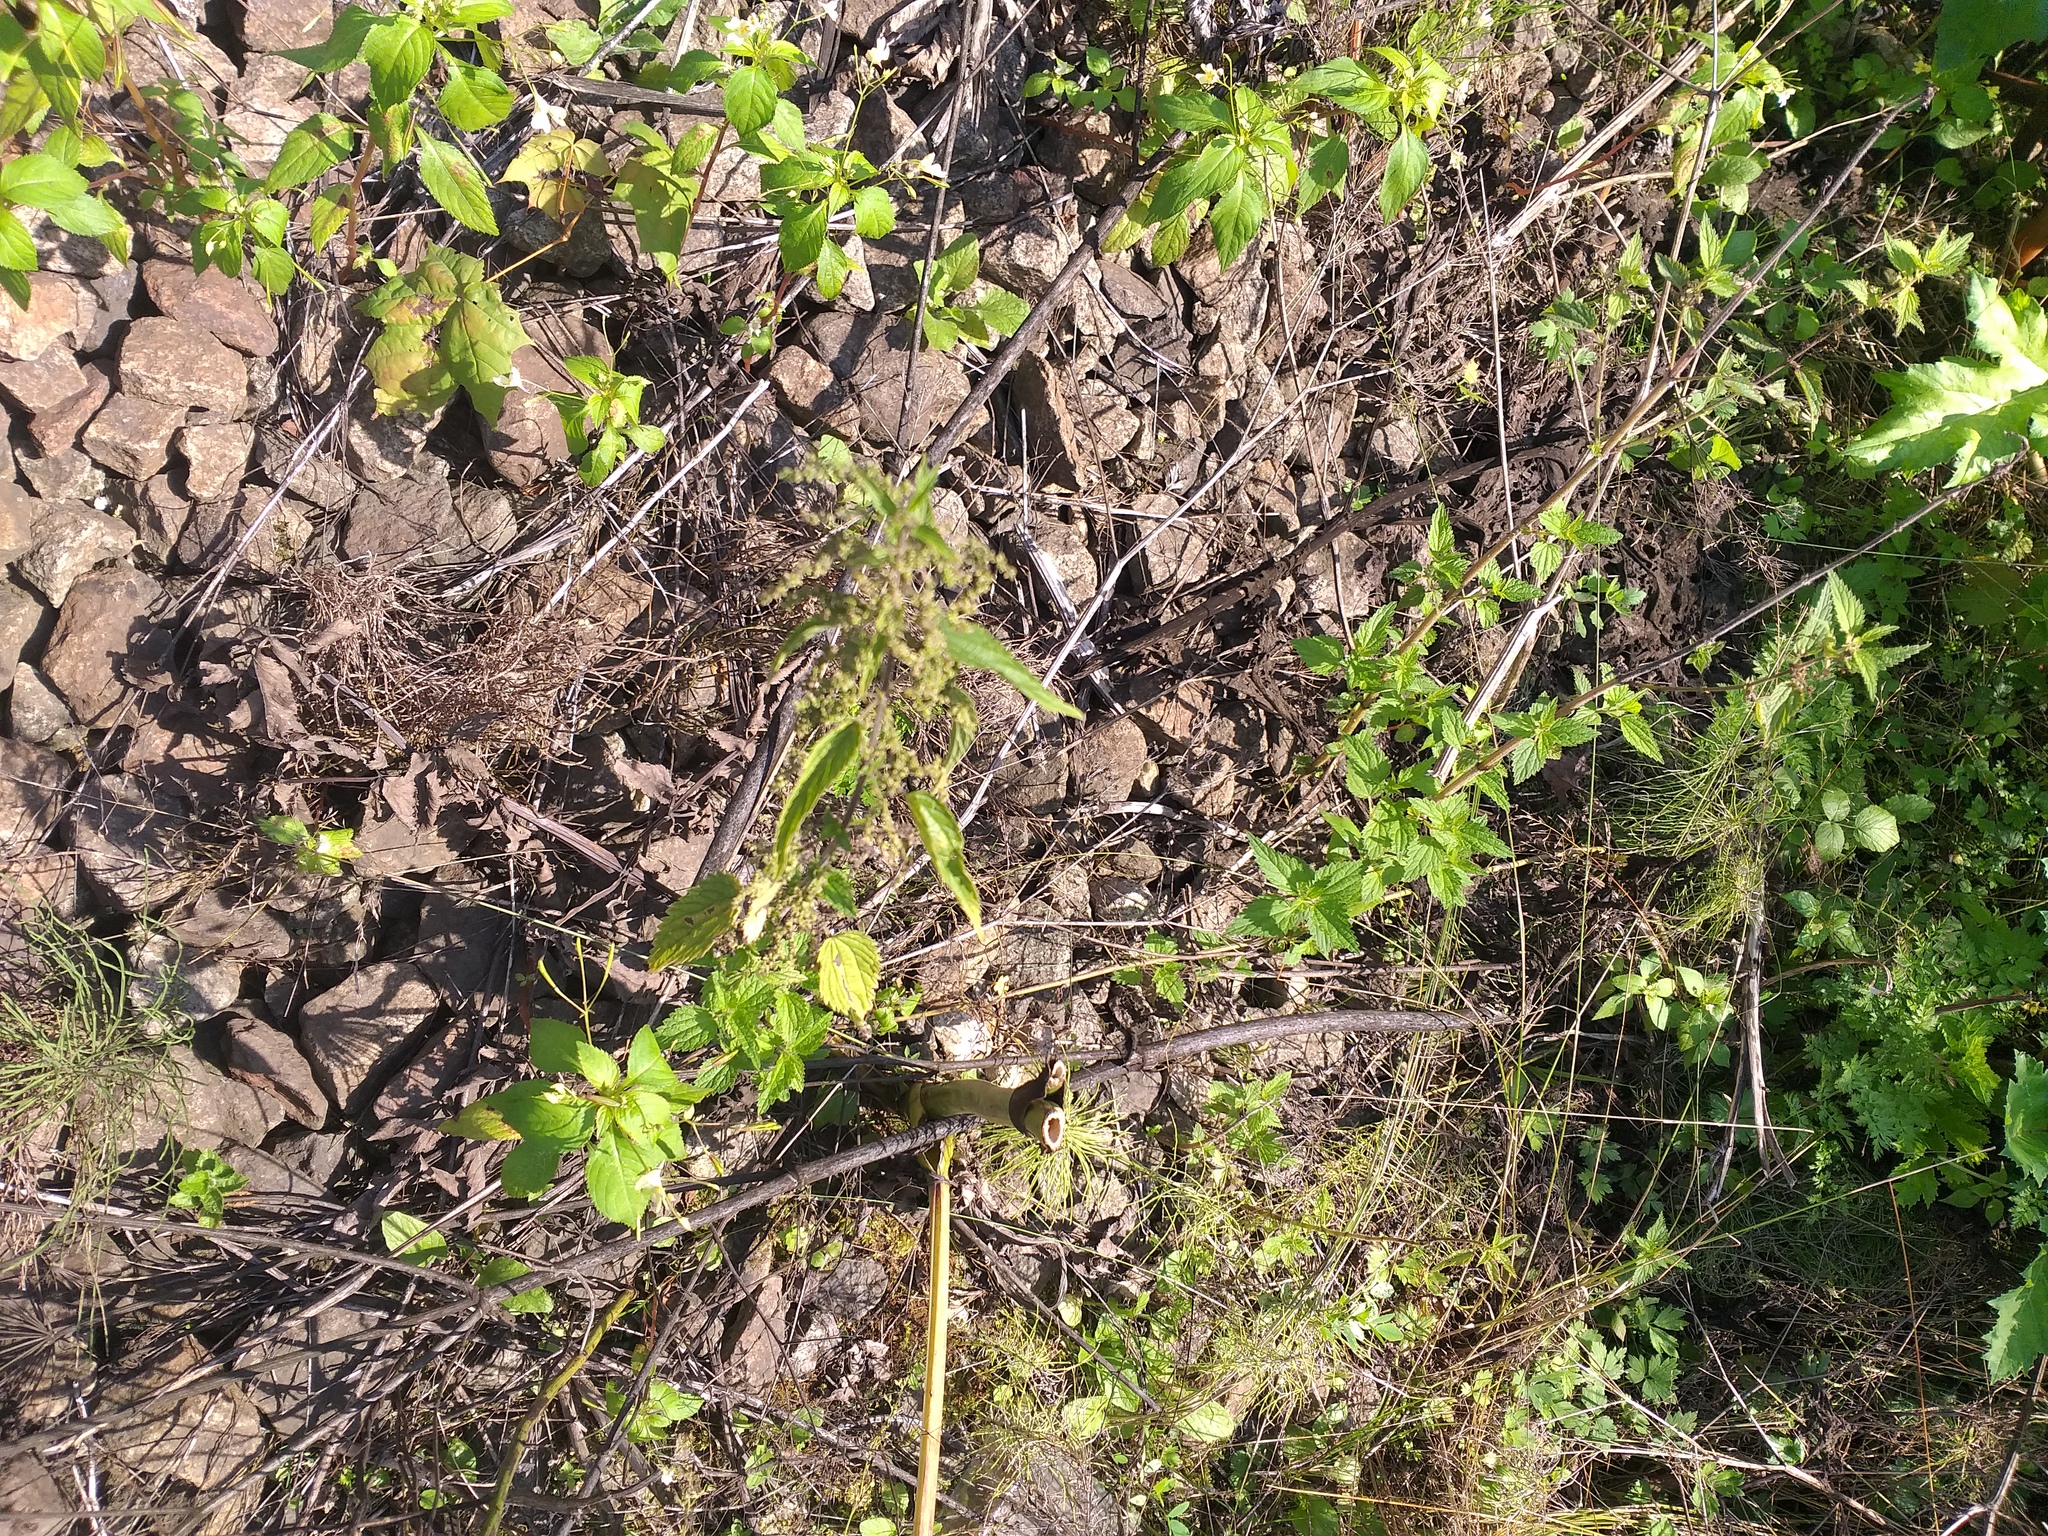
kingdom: Plantae
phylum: Tracheophyta
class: Magnoliopsida
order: Rosales
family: Urticaceae
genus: Urtica
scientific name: Urtica dioica
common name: Common nettle
